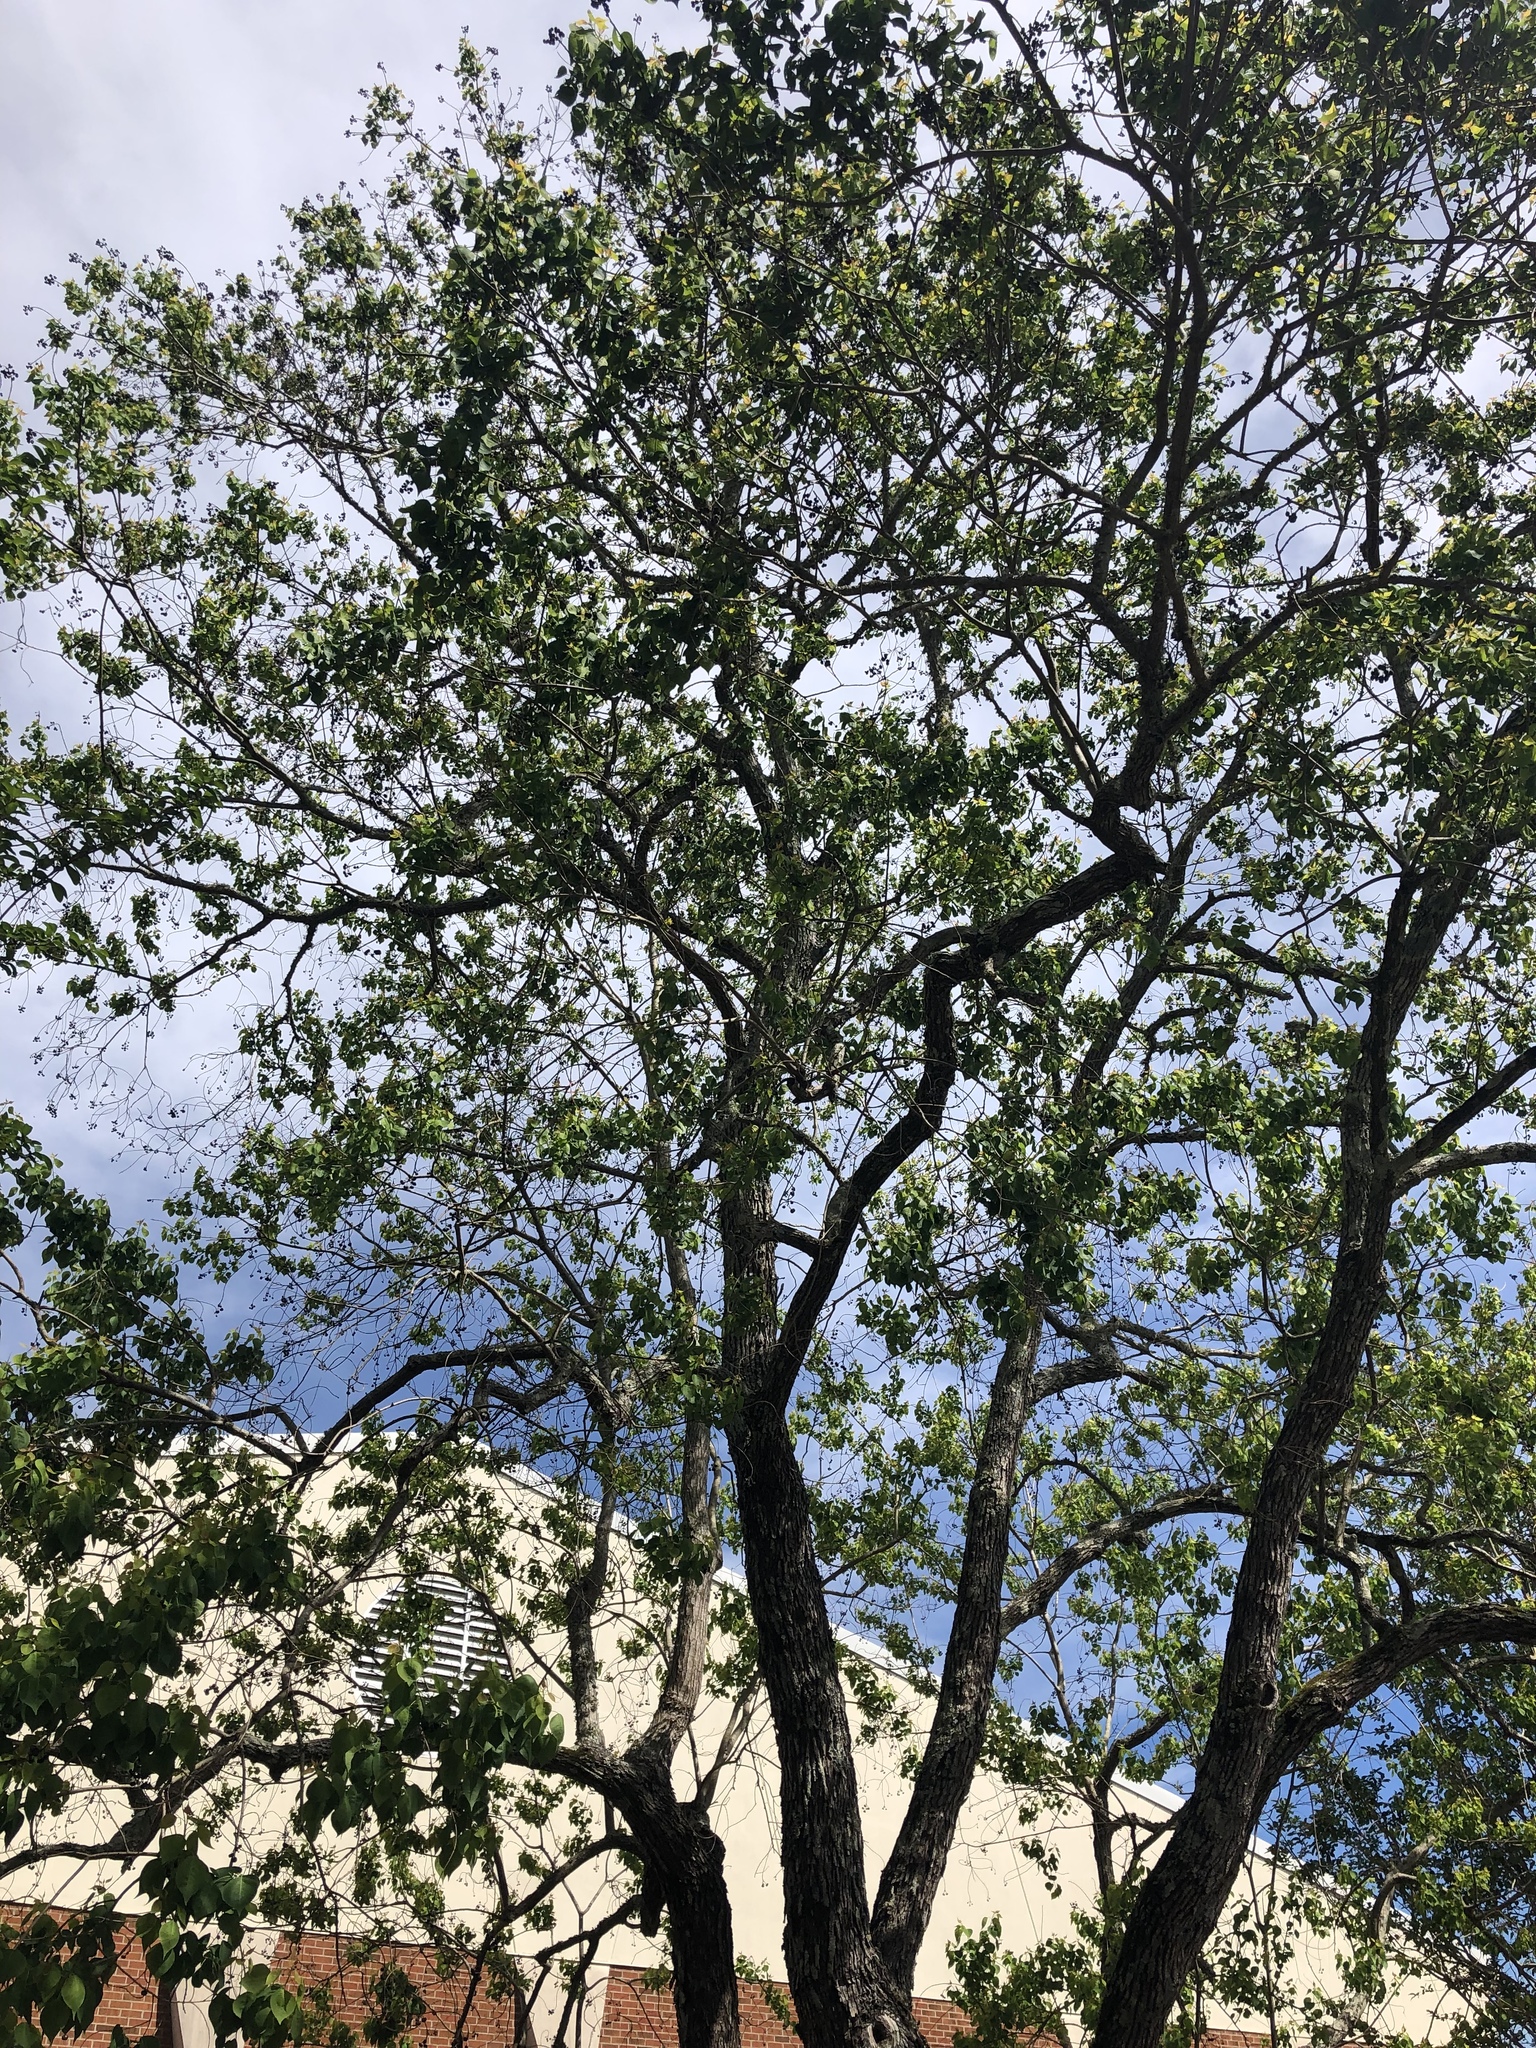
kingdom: Plantae
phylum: Tracheophyta
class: Magnoliopsida
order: Malpighiales
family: Euphorbiaceae
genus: Triadica
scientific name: Triadica sebifera
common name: Chinese tallow
